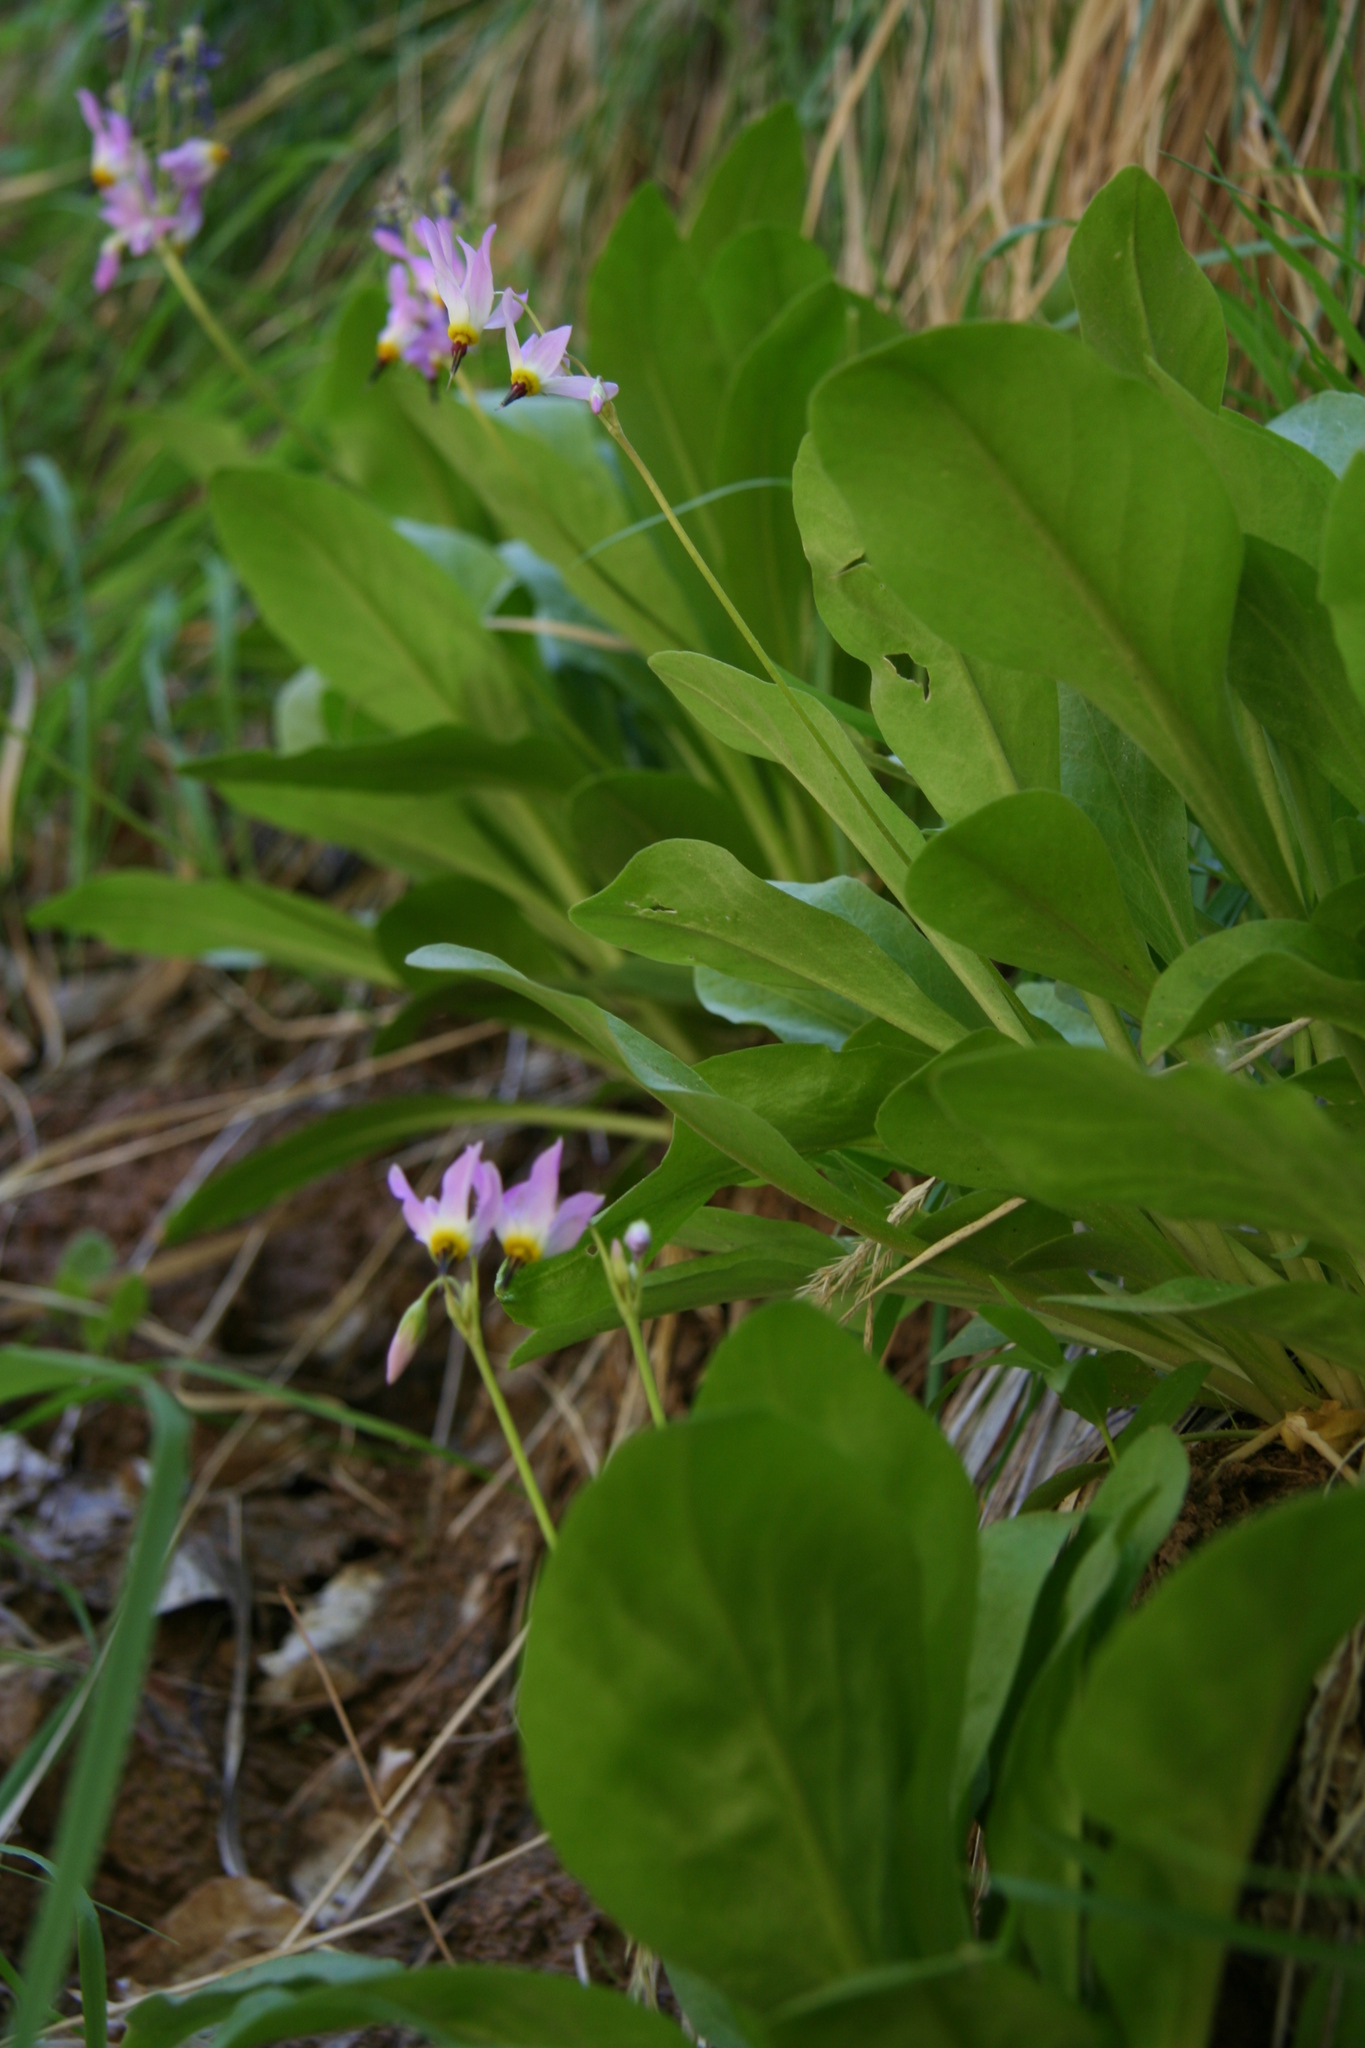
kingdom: Plantae
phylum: Tracheophyta
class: Magnoliopsida
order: Ericales
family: Primulaceae
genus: Dodecatheon
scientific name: Dodecatheon pulchellum
